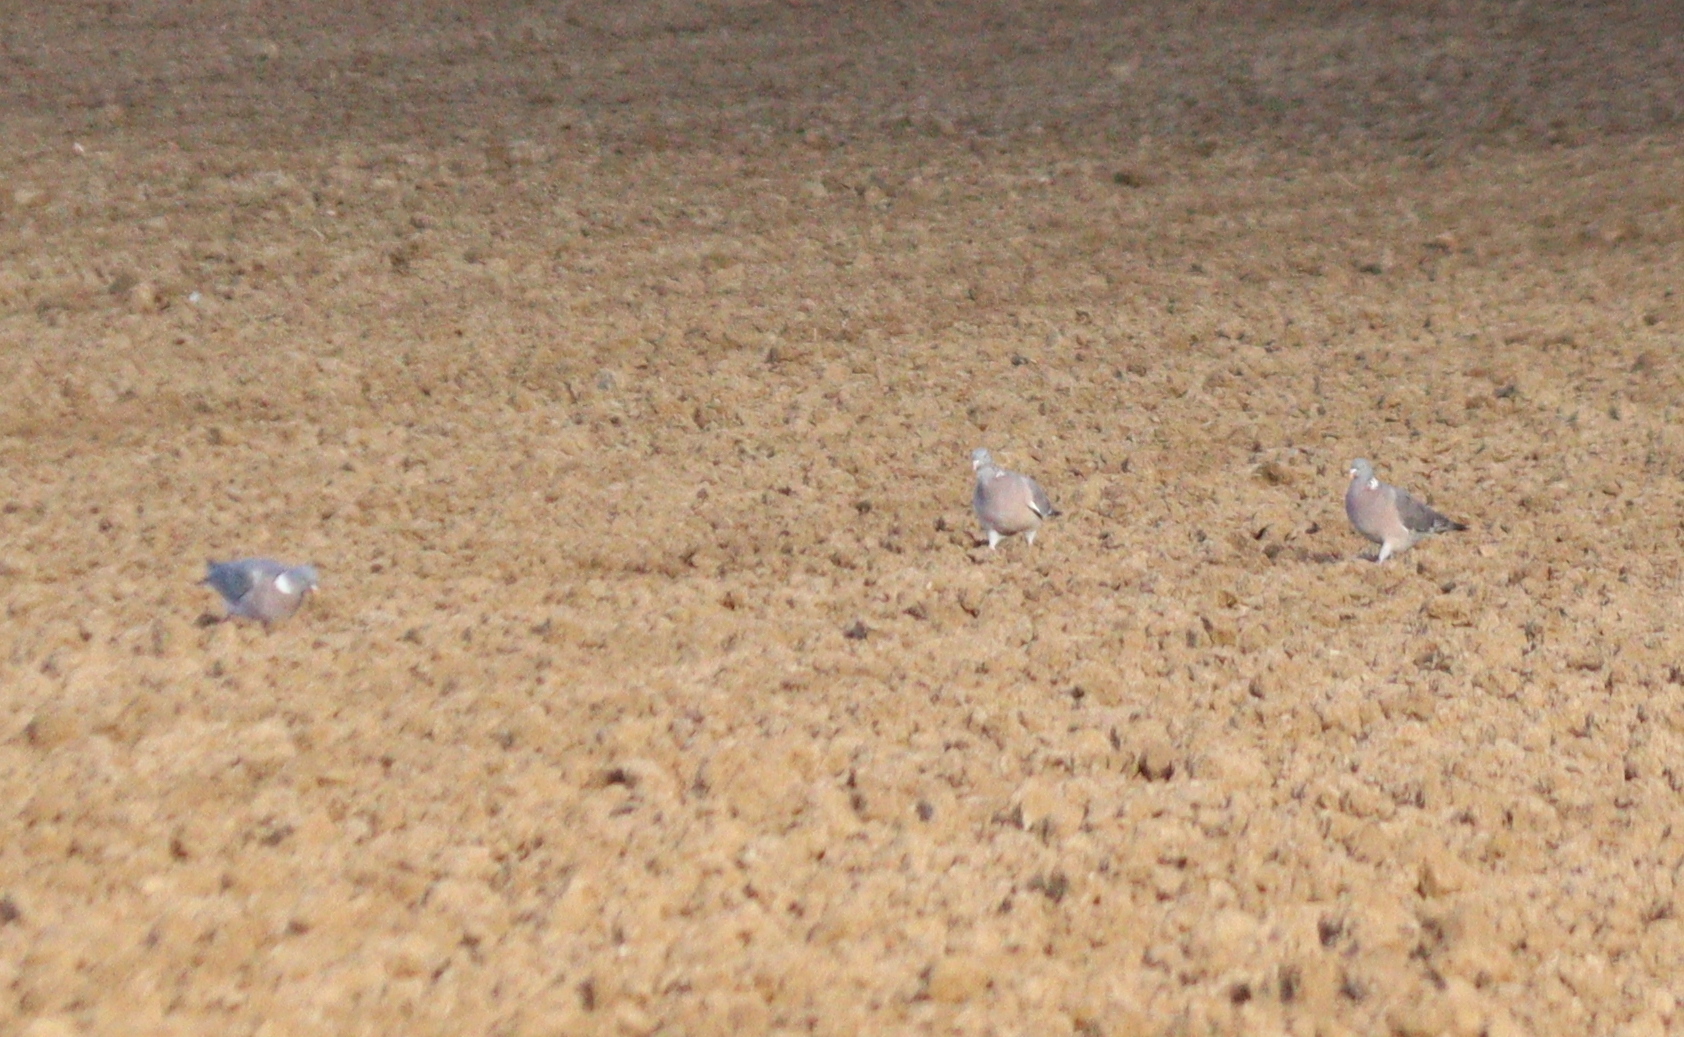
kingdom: Animalia
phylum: Chordata
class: Aves
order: Columbiformes
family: Columbidae
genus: Columba
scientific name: Columba palumbus
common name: Common wood pigeon
